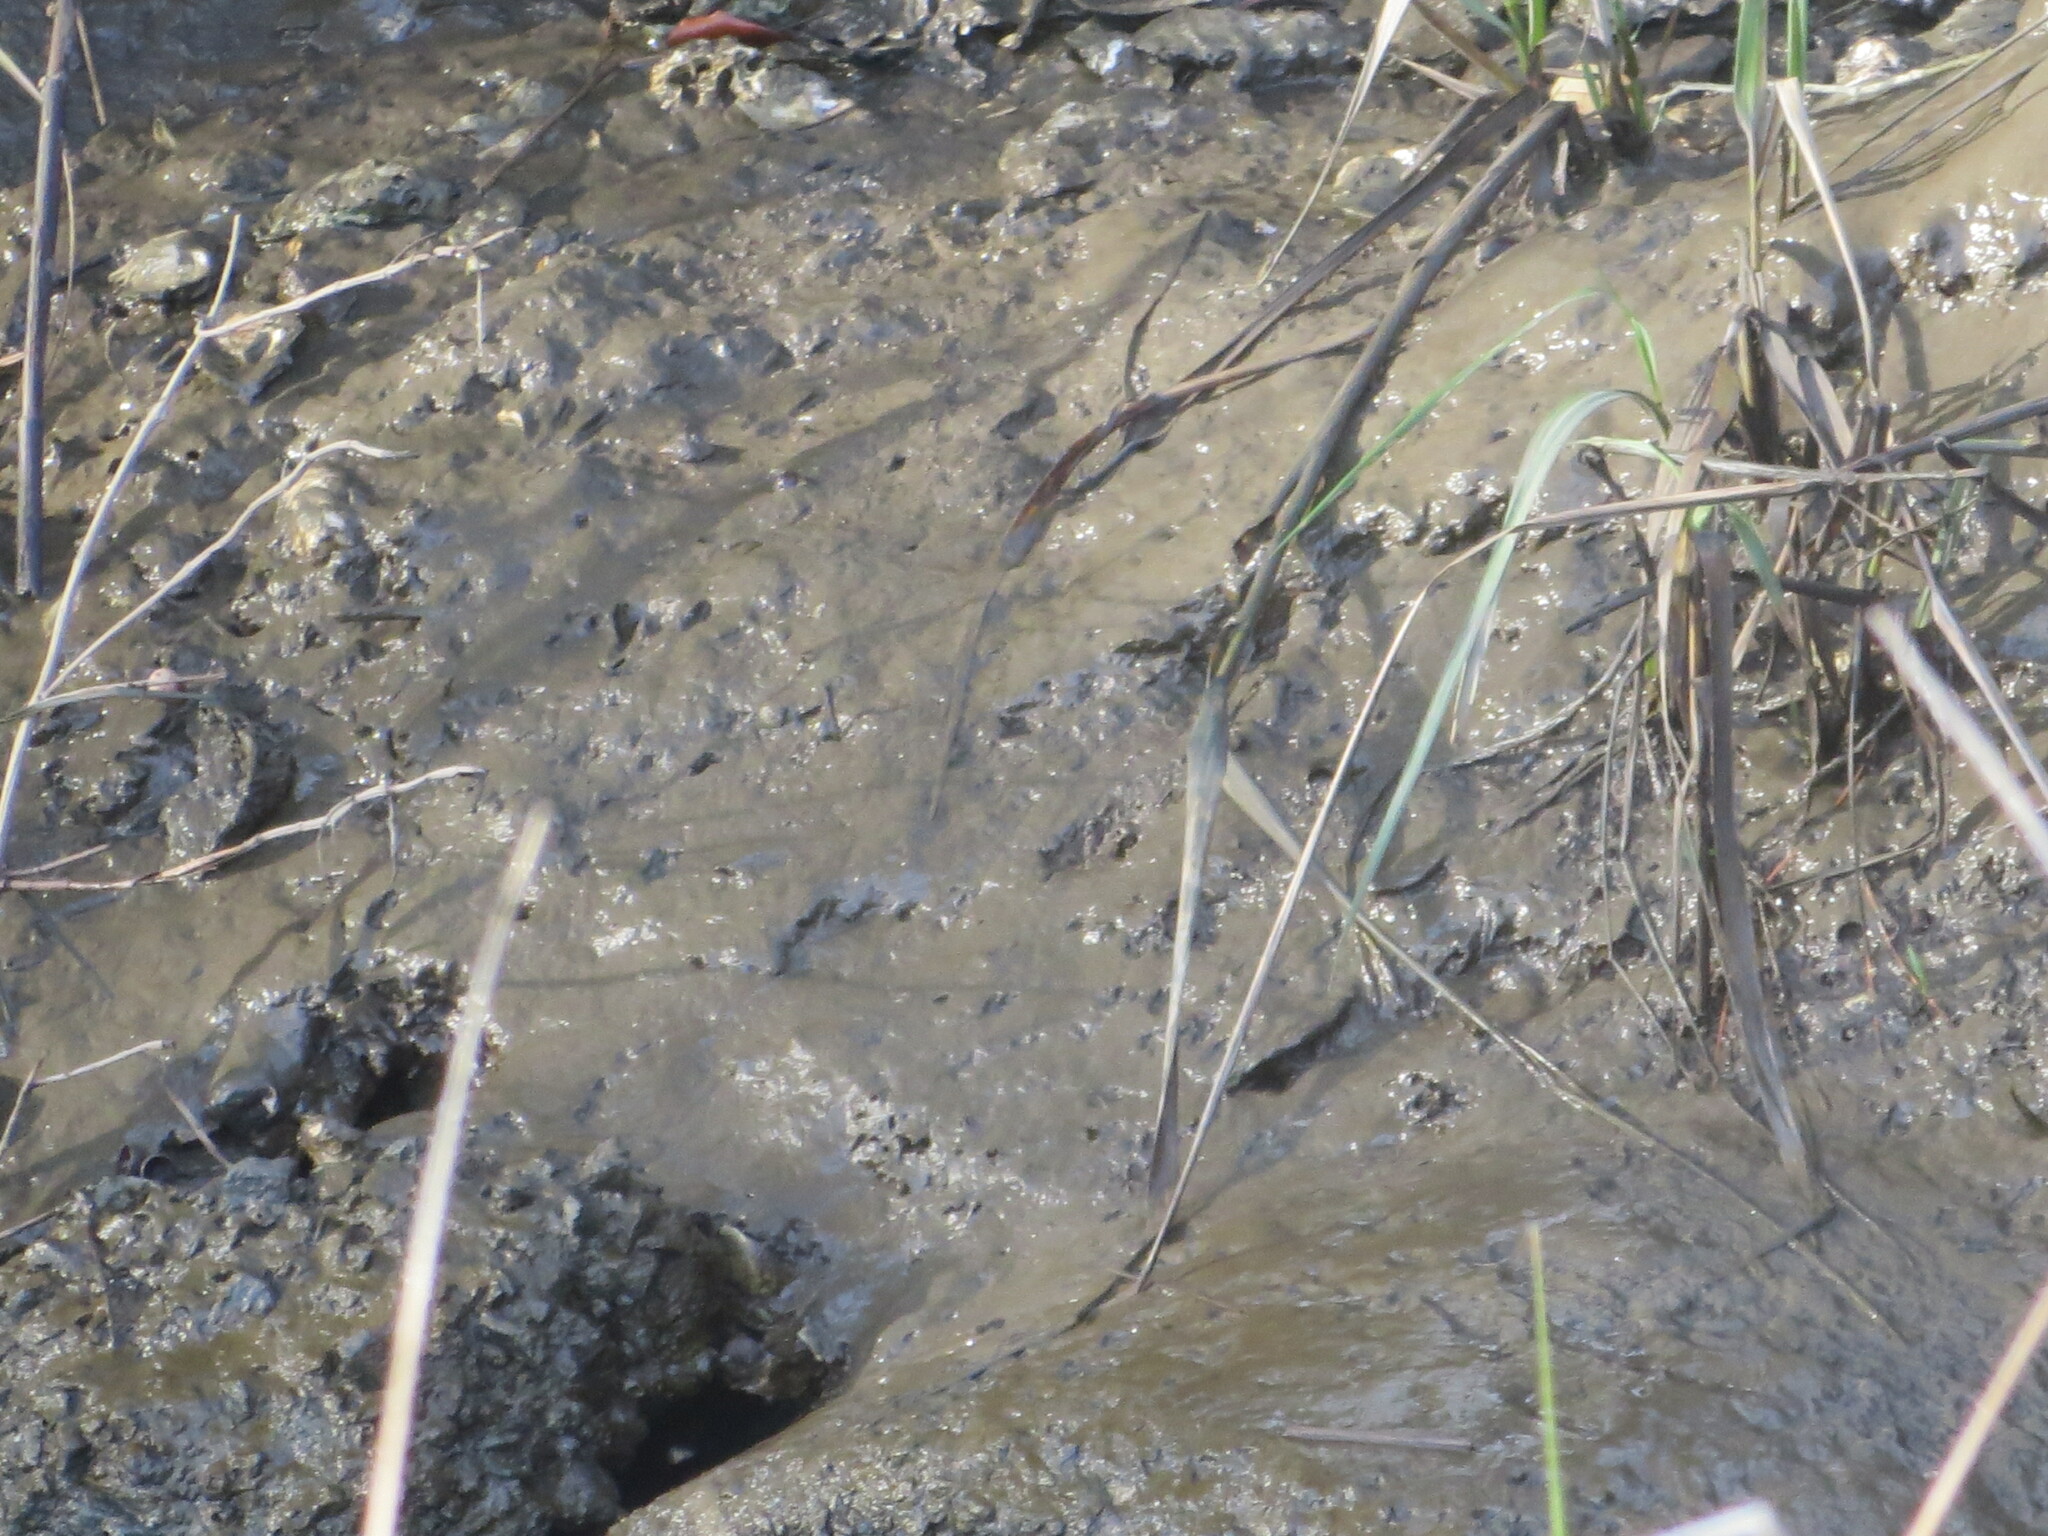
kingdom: Animalia
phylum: Chordata
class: Mammalia
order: Carnivora
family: Mustelidae
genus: Mustela
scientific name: Mustela
